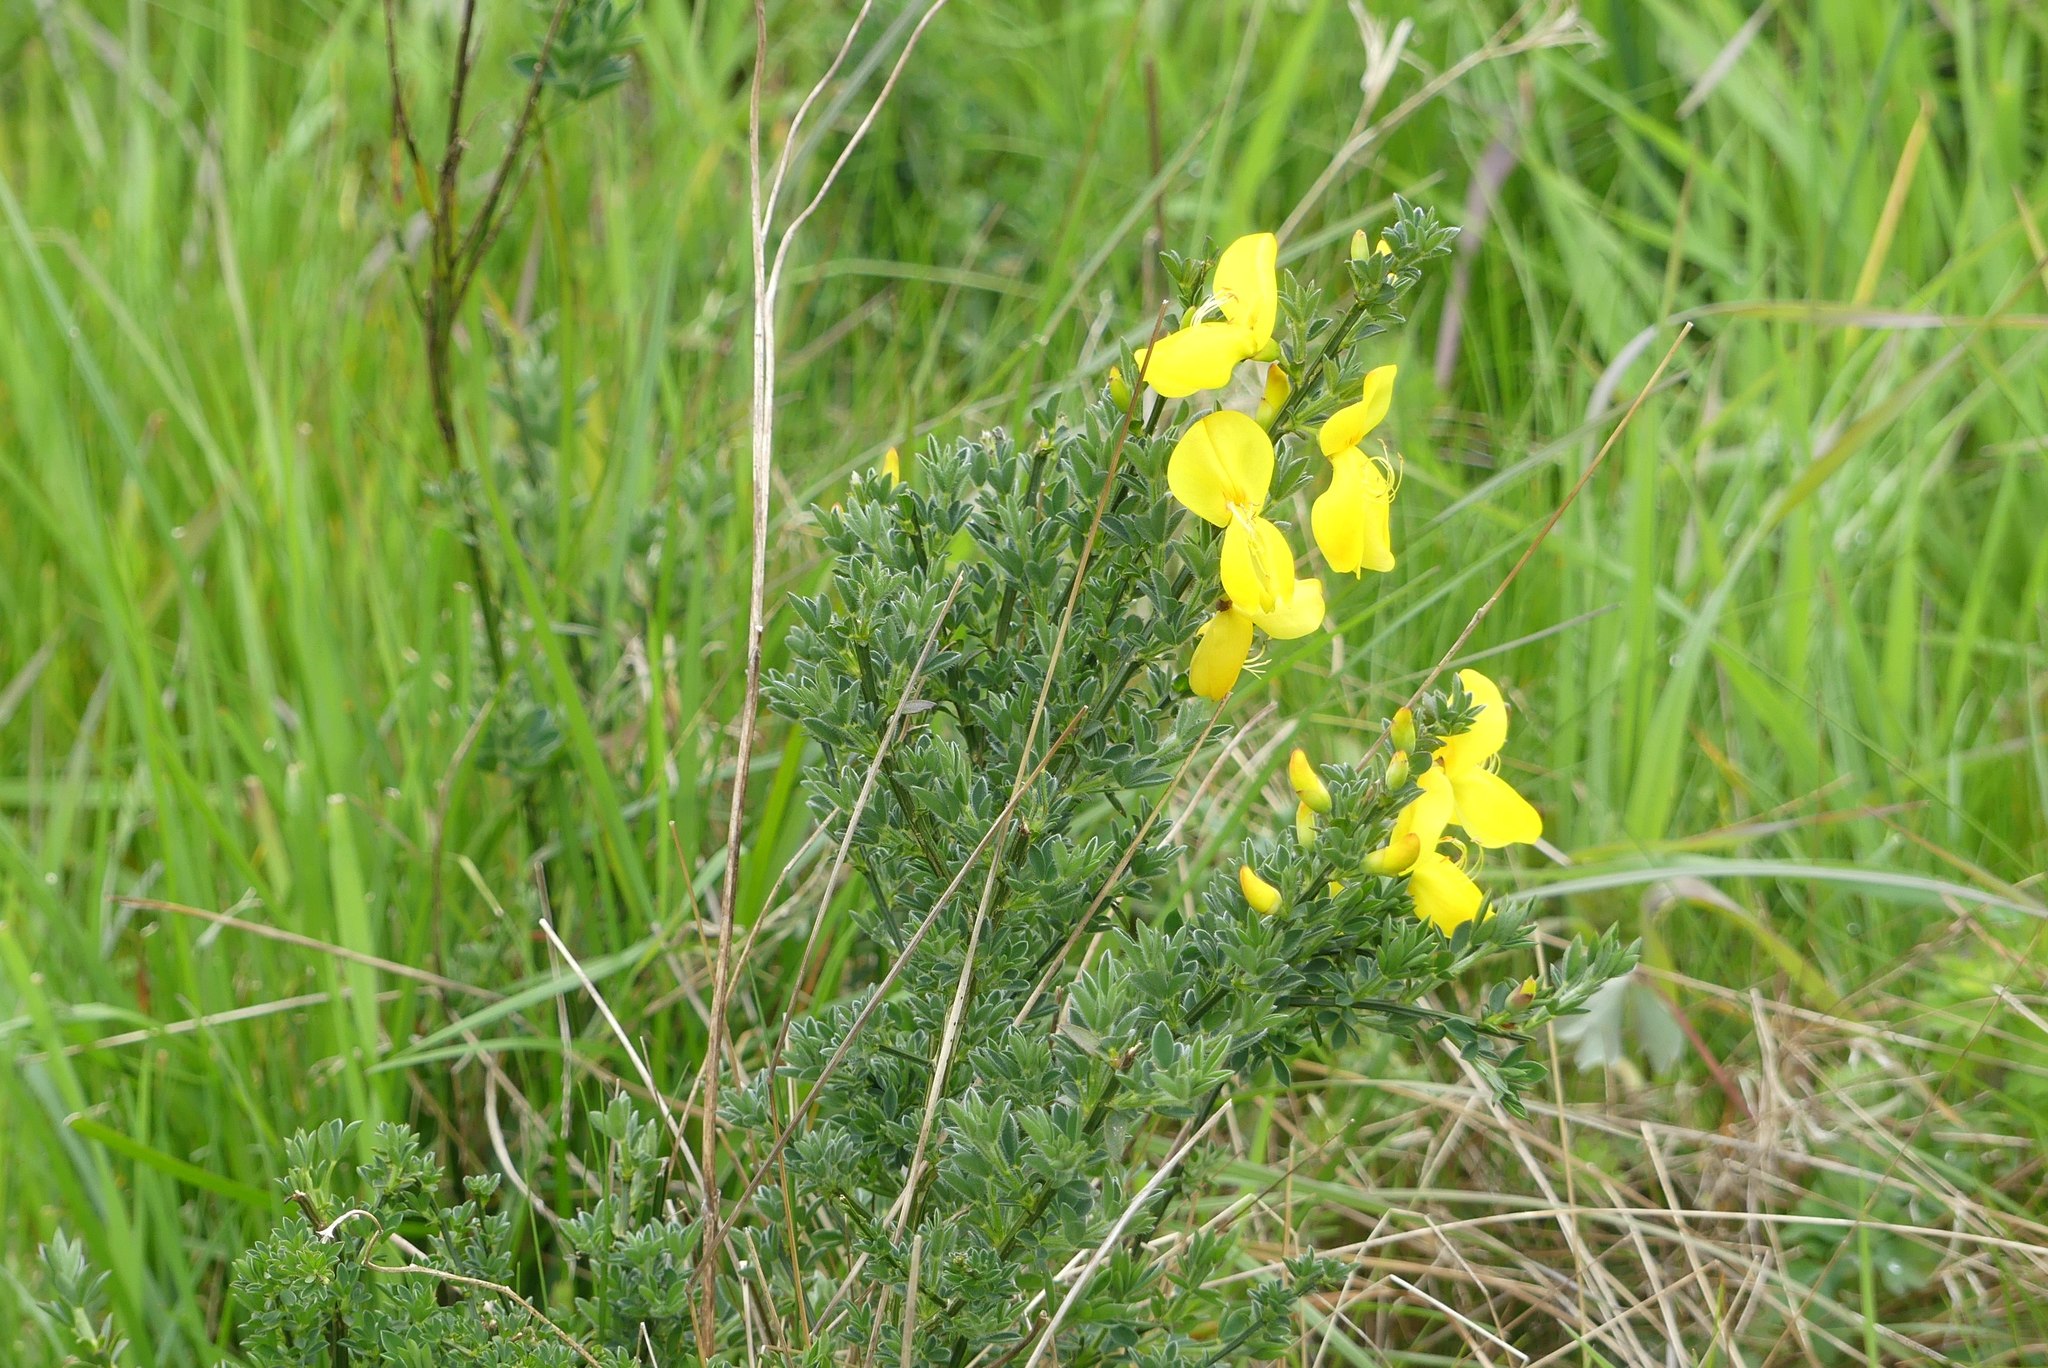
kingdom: Plantae
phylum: Tracheophyta
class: Magnoliopsida
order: Fabales
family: Fabaceae
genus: Cytisus
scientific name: Cytisus scoparius
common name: Scotch broom
